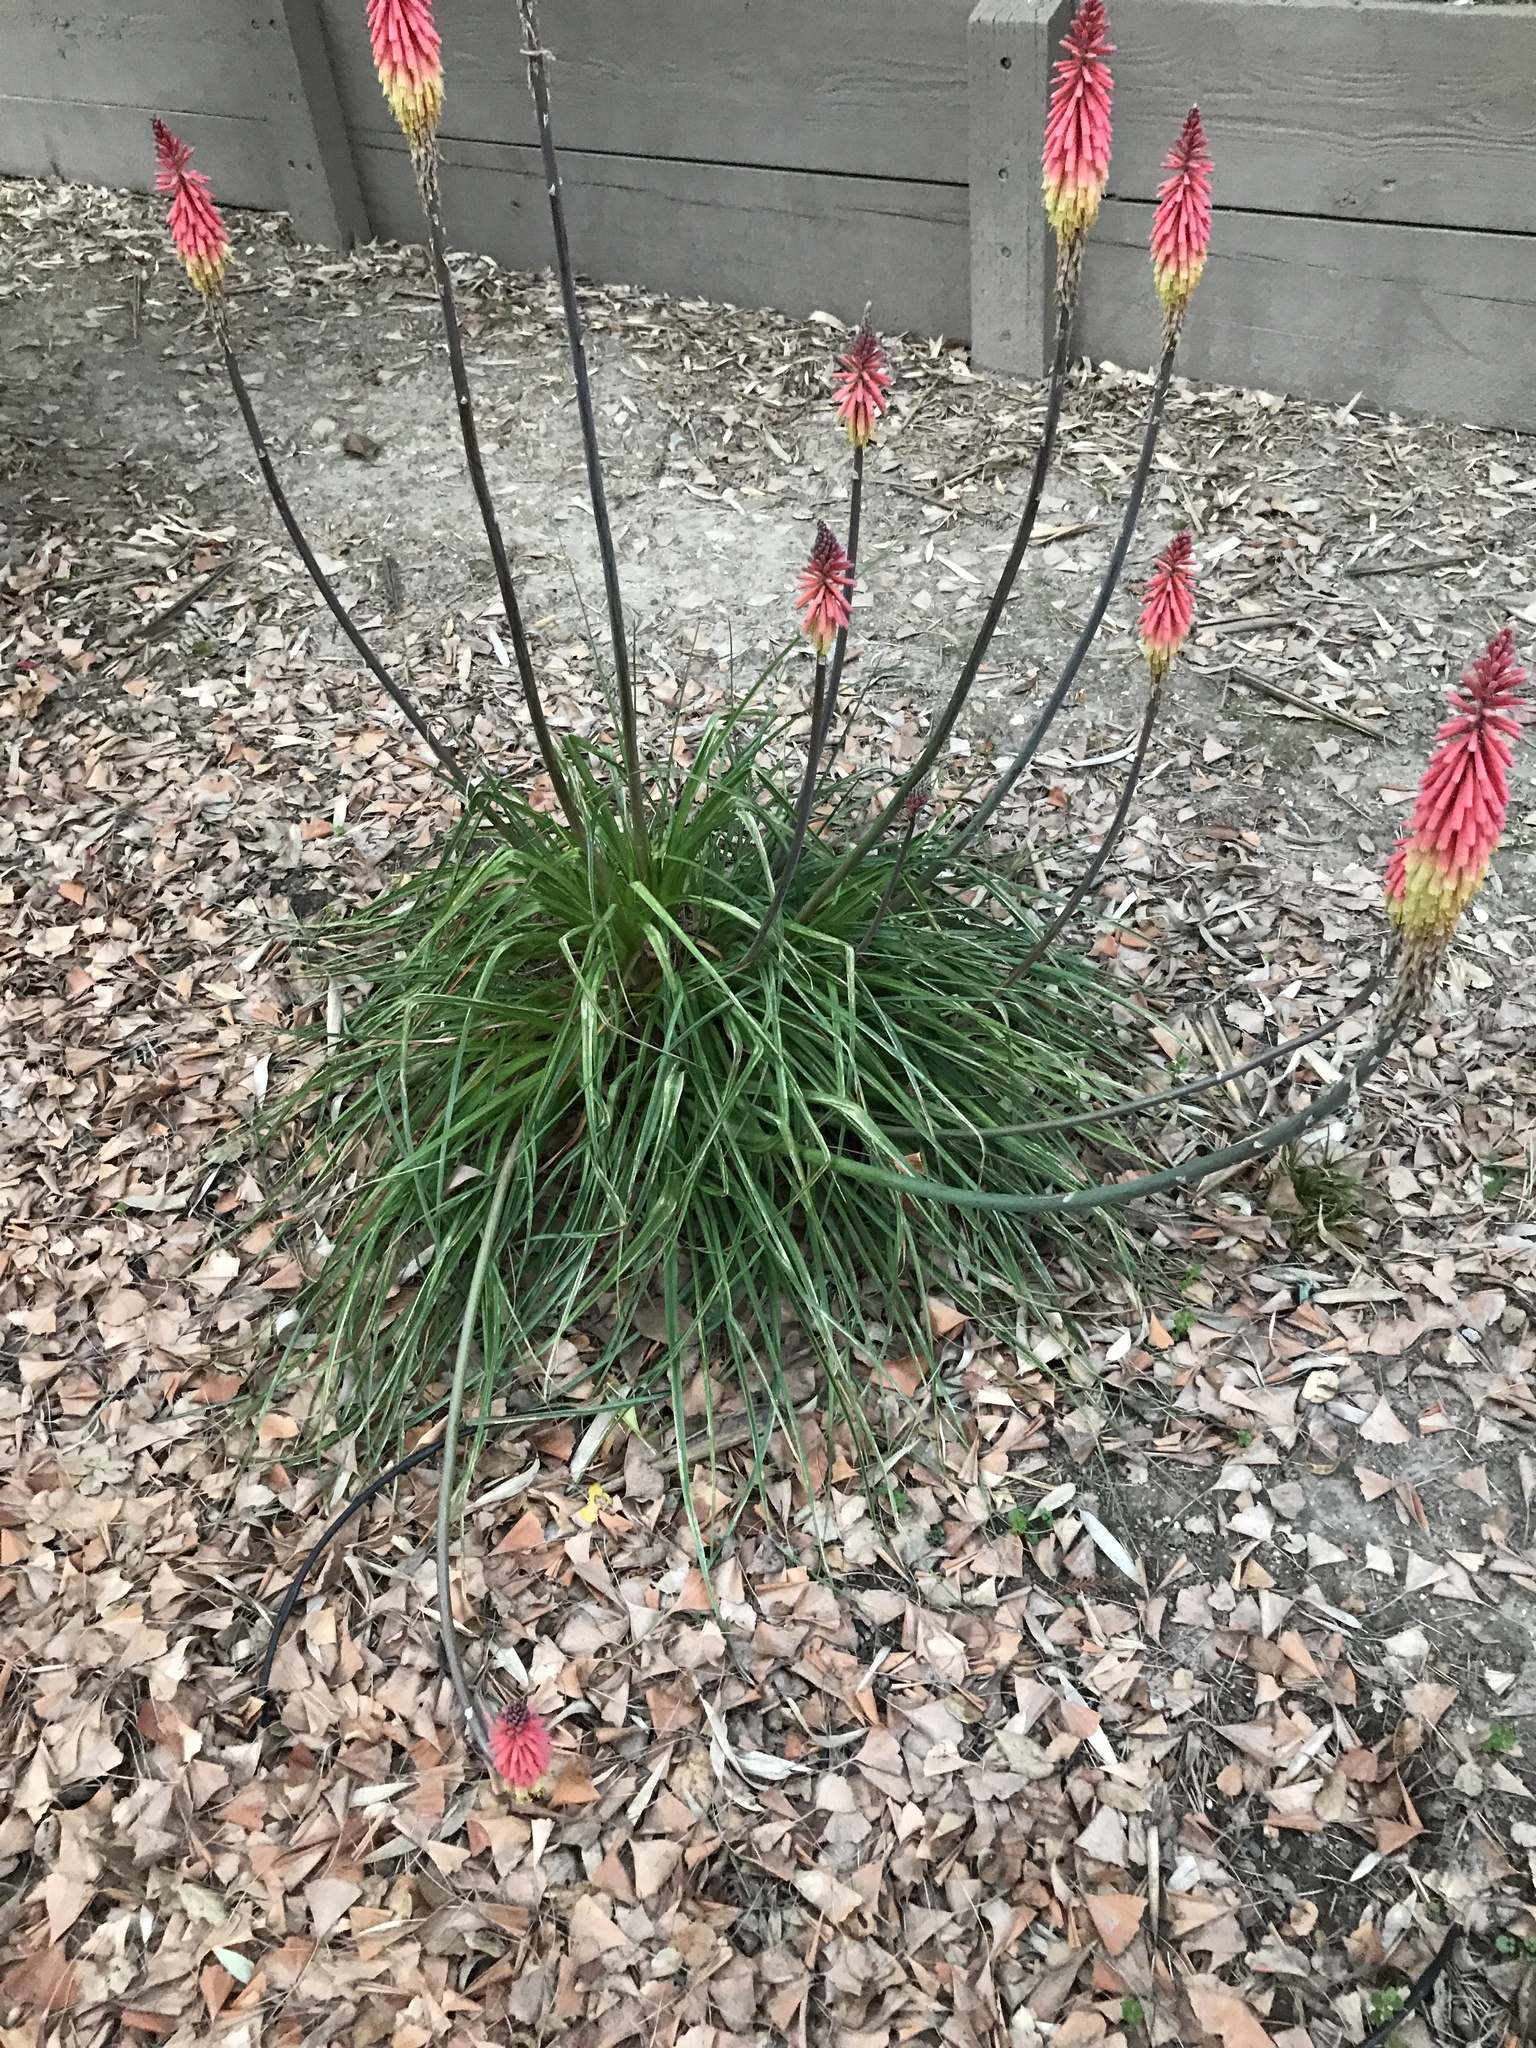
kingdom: Plantae
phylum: Tracheophyta
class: Liliopsida
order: Asparagales
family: Asphodelaceae
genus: Kniphofia
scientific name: Kniphofia uvaria
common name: Red-hot-poker
